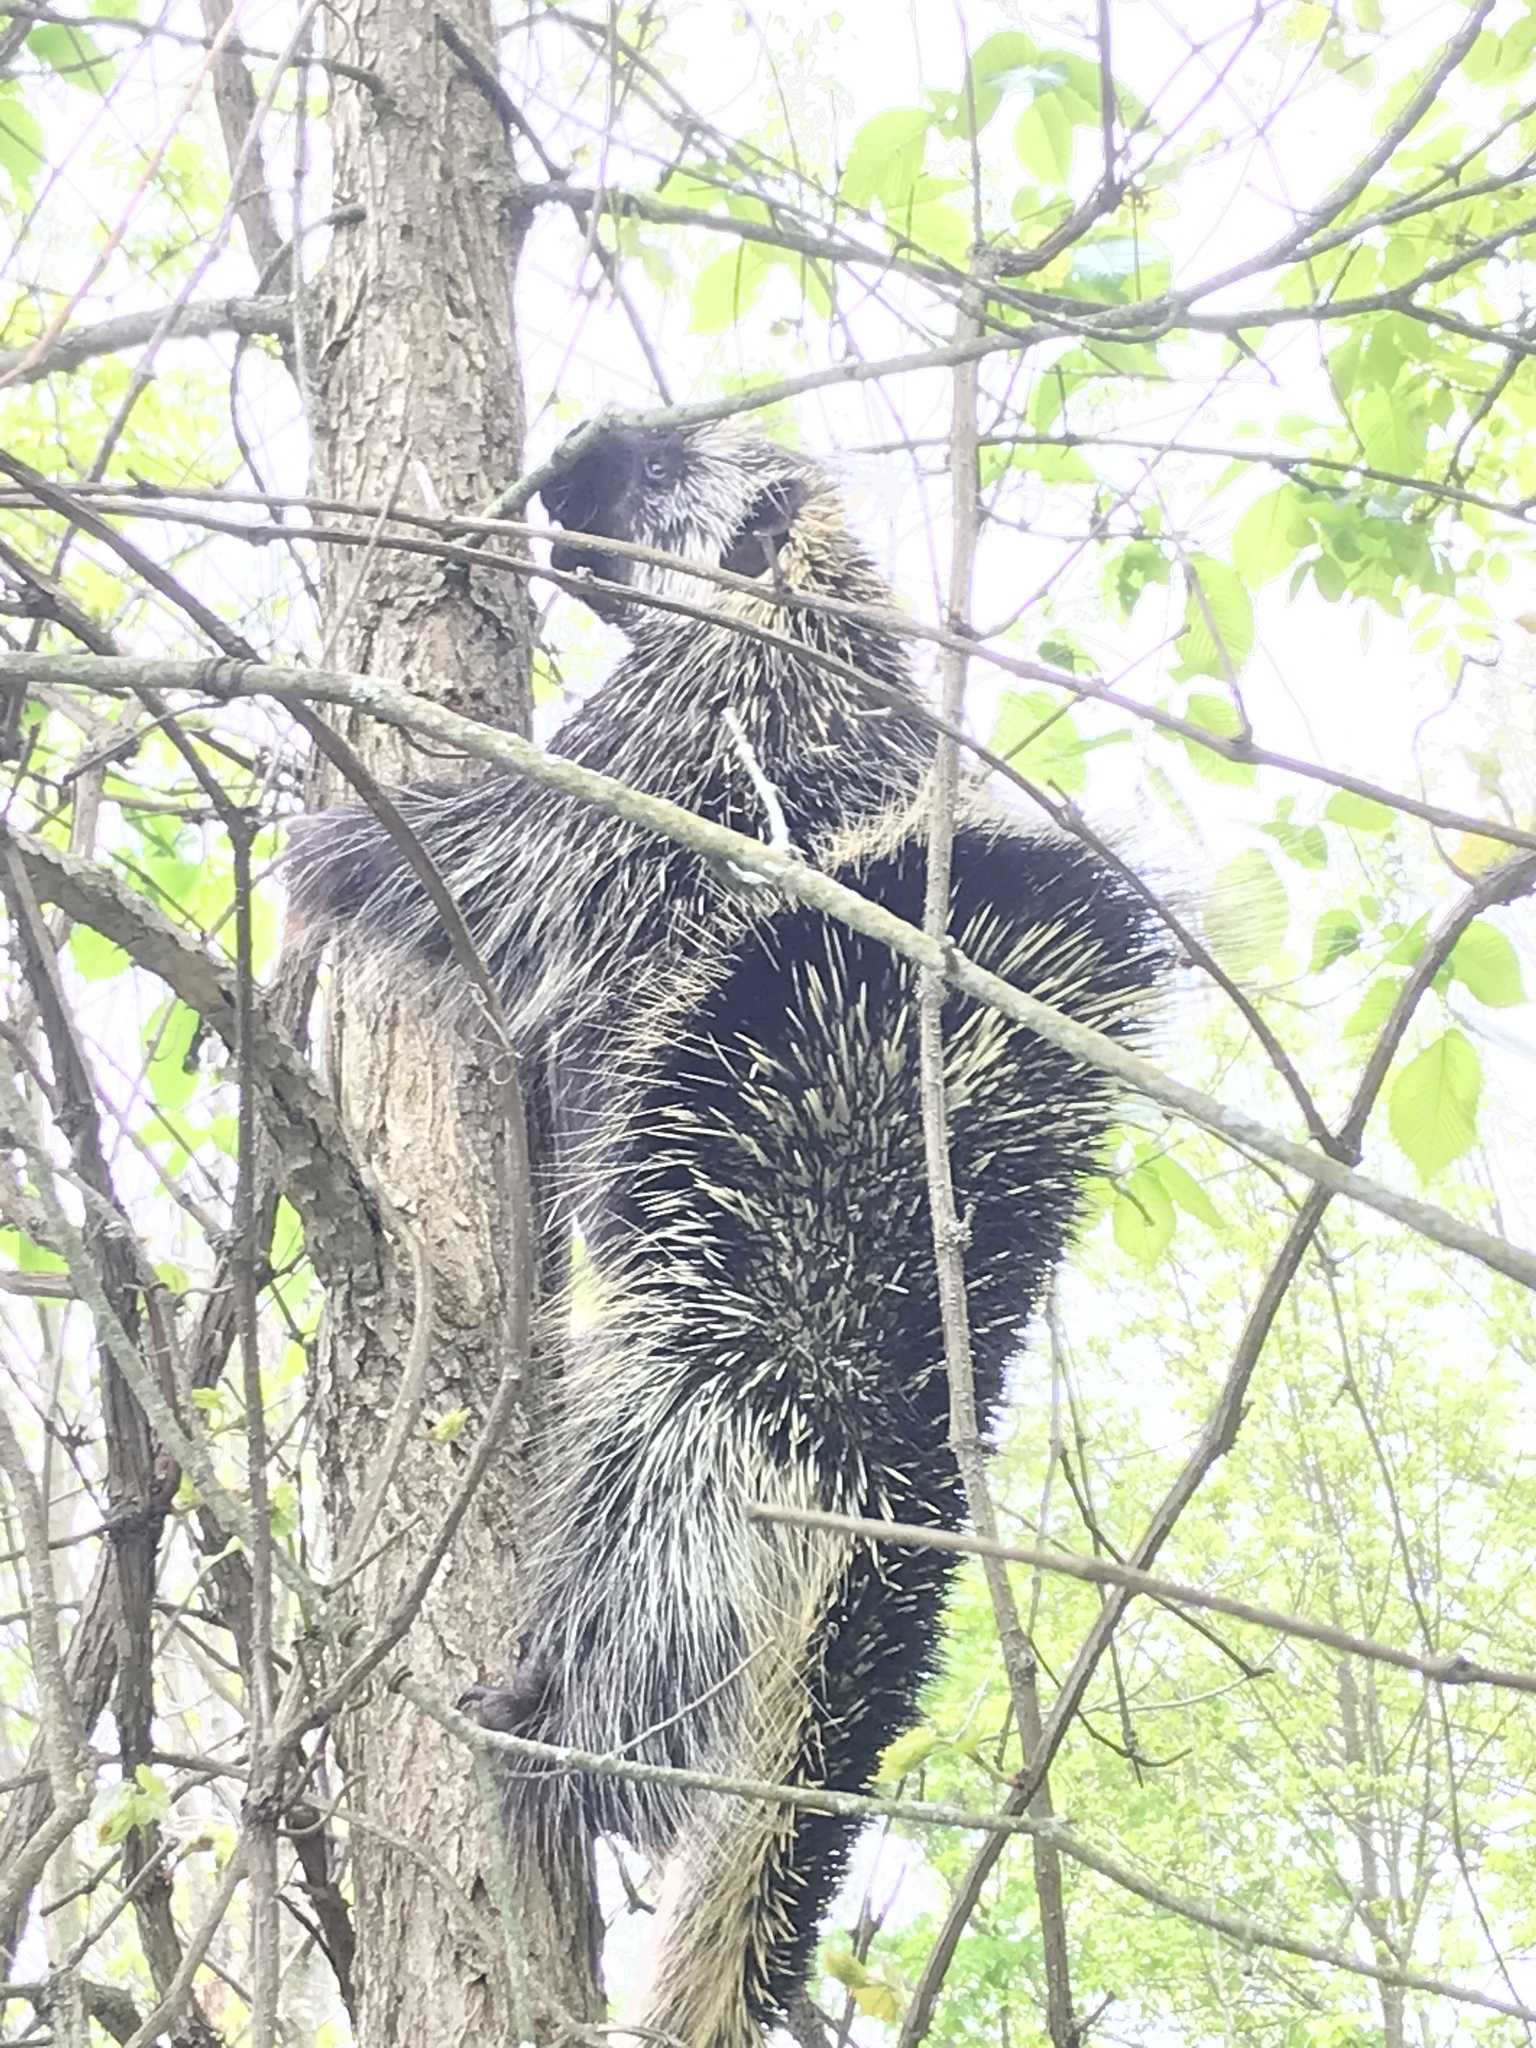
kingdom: Animalia
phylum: Chordata
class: Mammalia
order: Rodentia
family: Erethizontidae
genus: Erethizon
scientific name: Erethizon dorsatus
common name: North american porcupine
